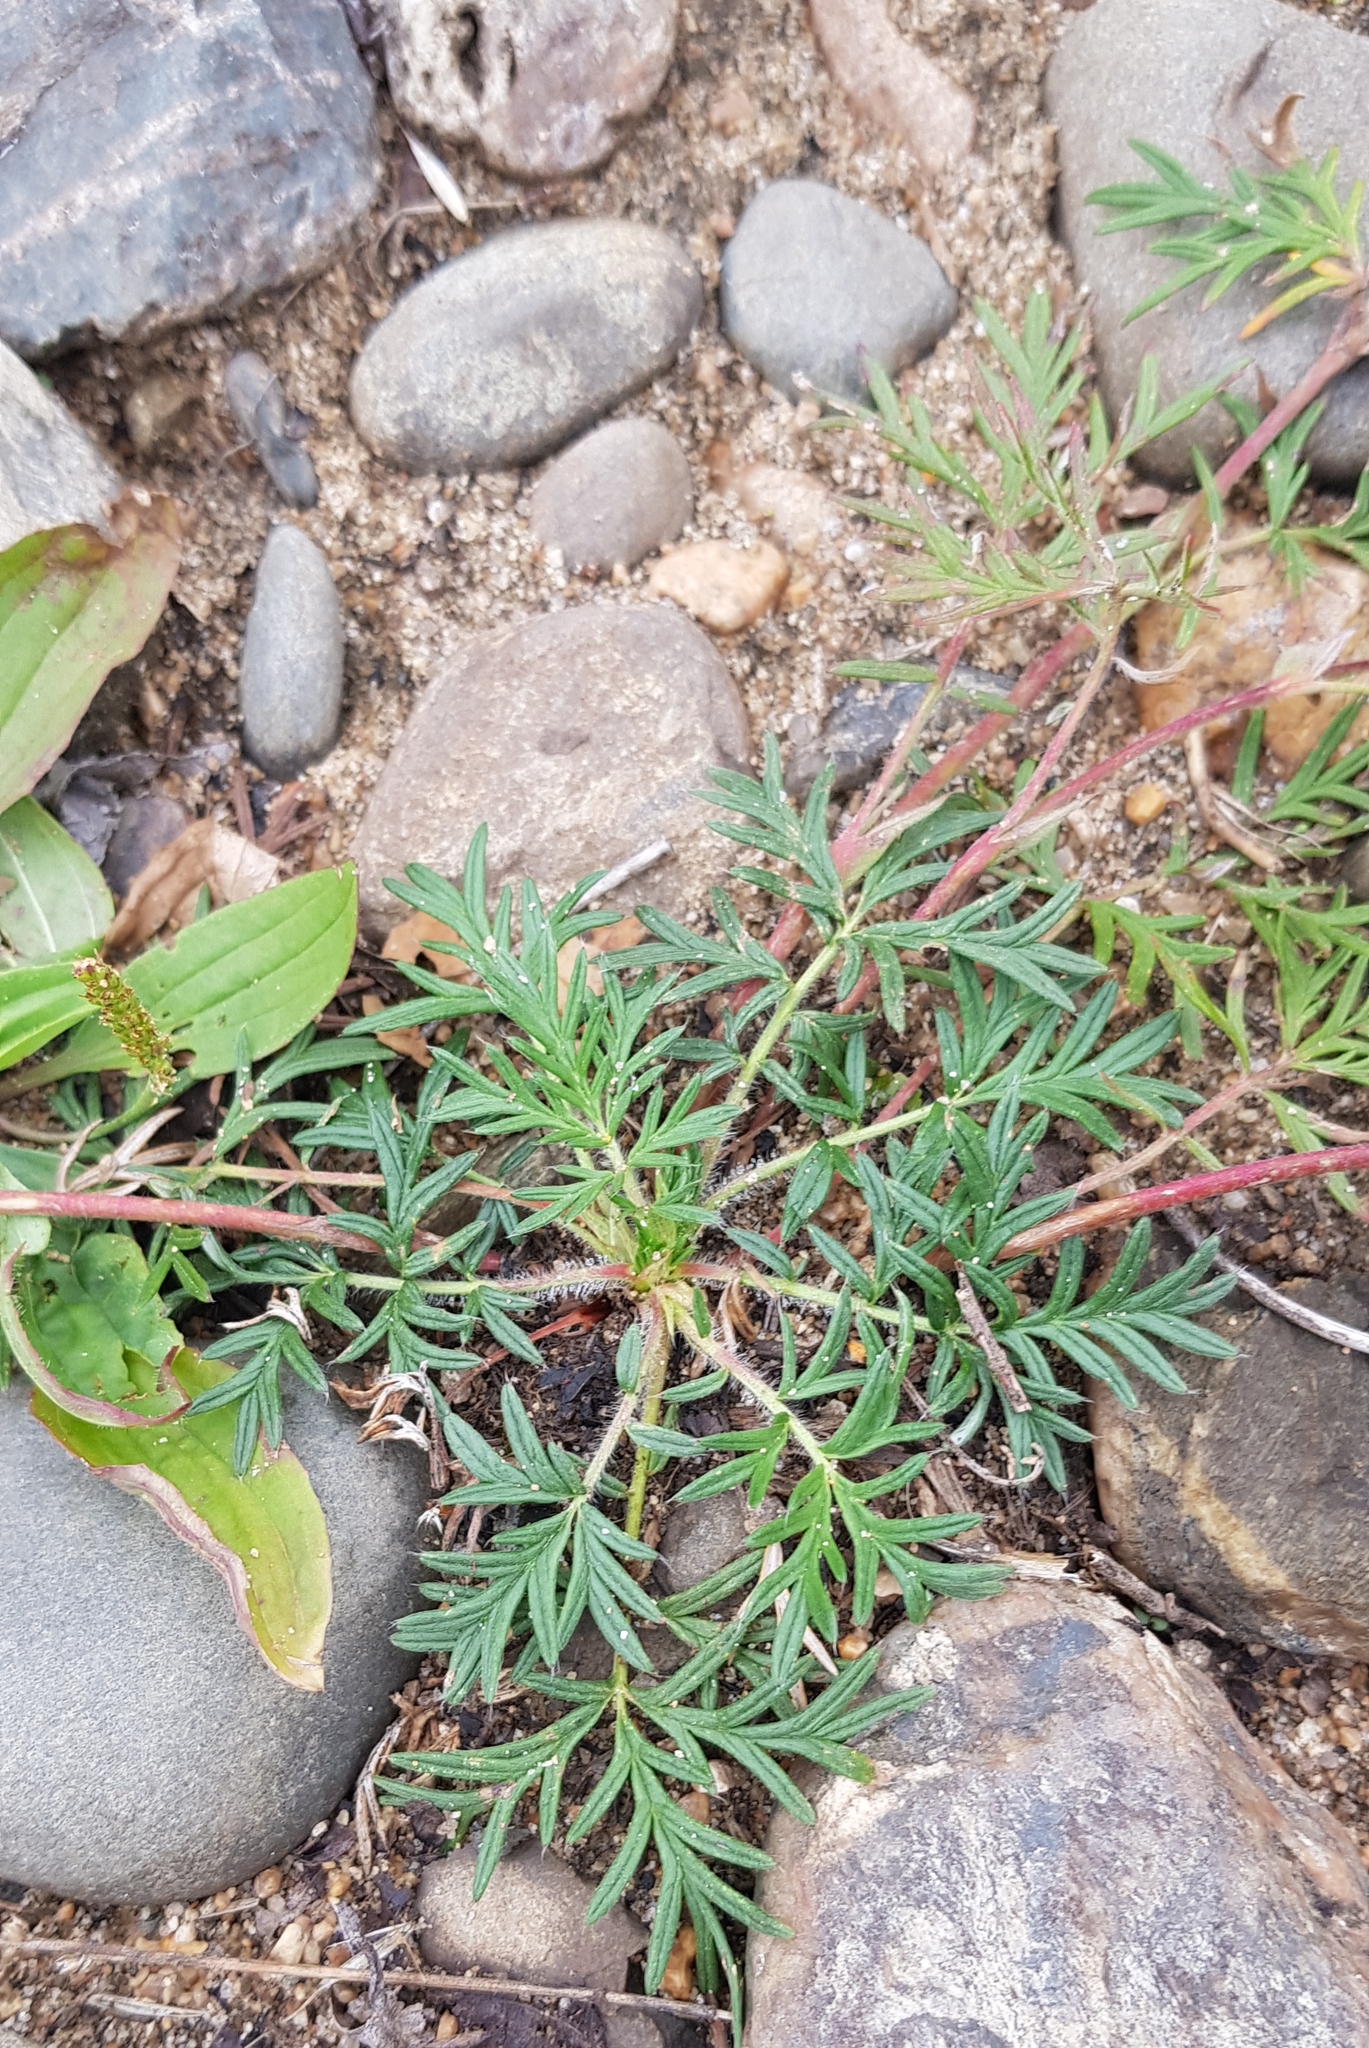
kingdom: Plantae
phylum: Tracheophyta
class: Magnoliopsida
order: Rosales
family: Rosaceae
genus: Potentilla
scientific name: Potentilla tergemina
